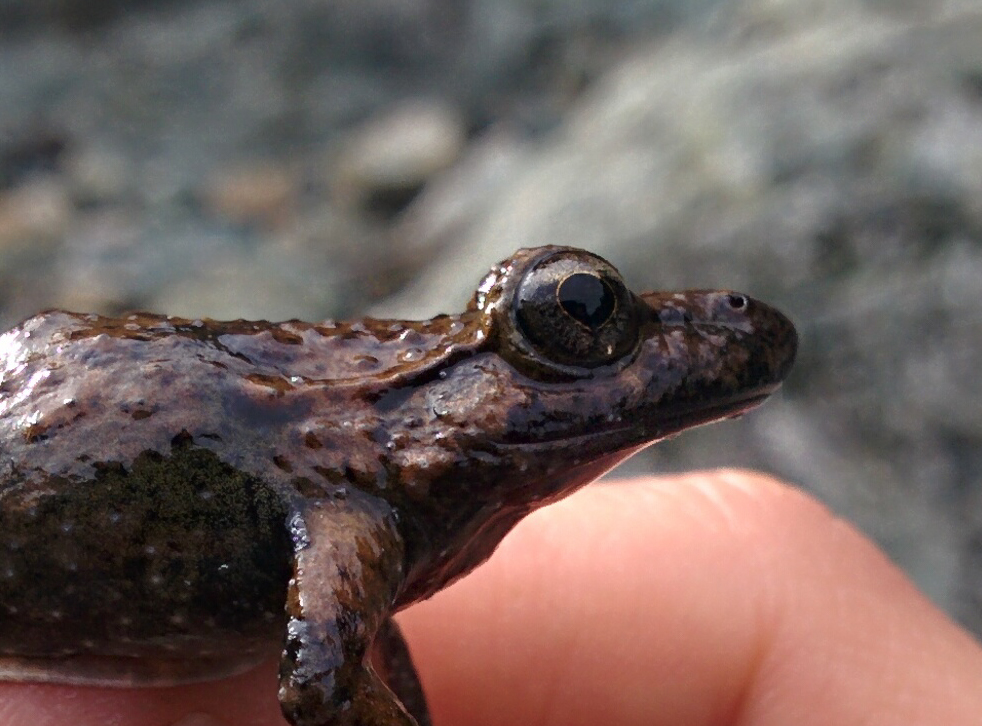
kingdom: Animalia
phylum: Chordata
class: Amphibia
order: Anura
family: Alytidae
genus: Discoglossus
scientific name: Discoglossus montalentii
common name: Corsica painted frog
